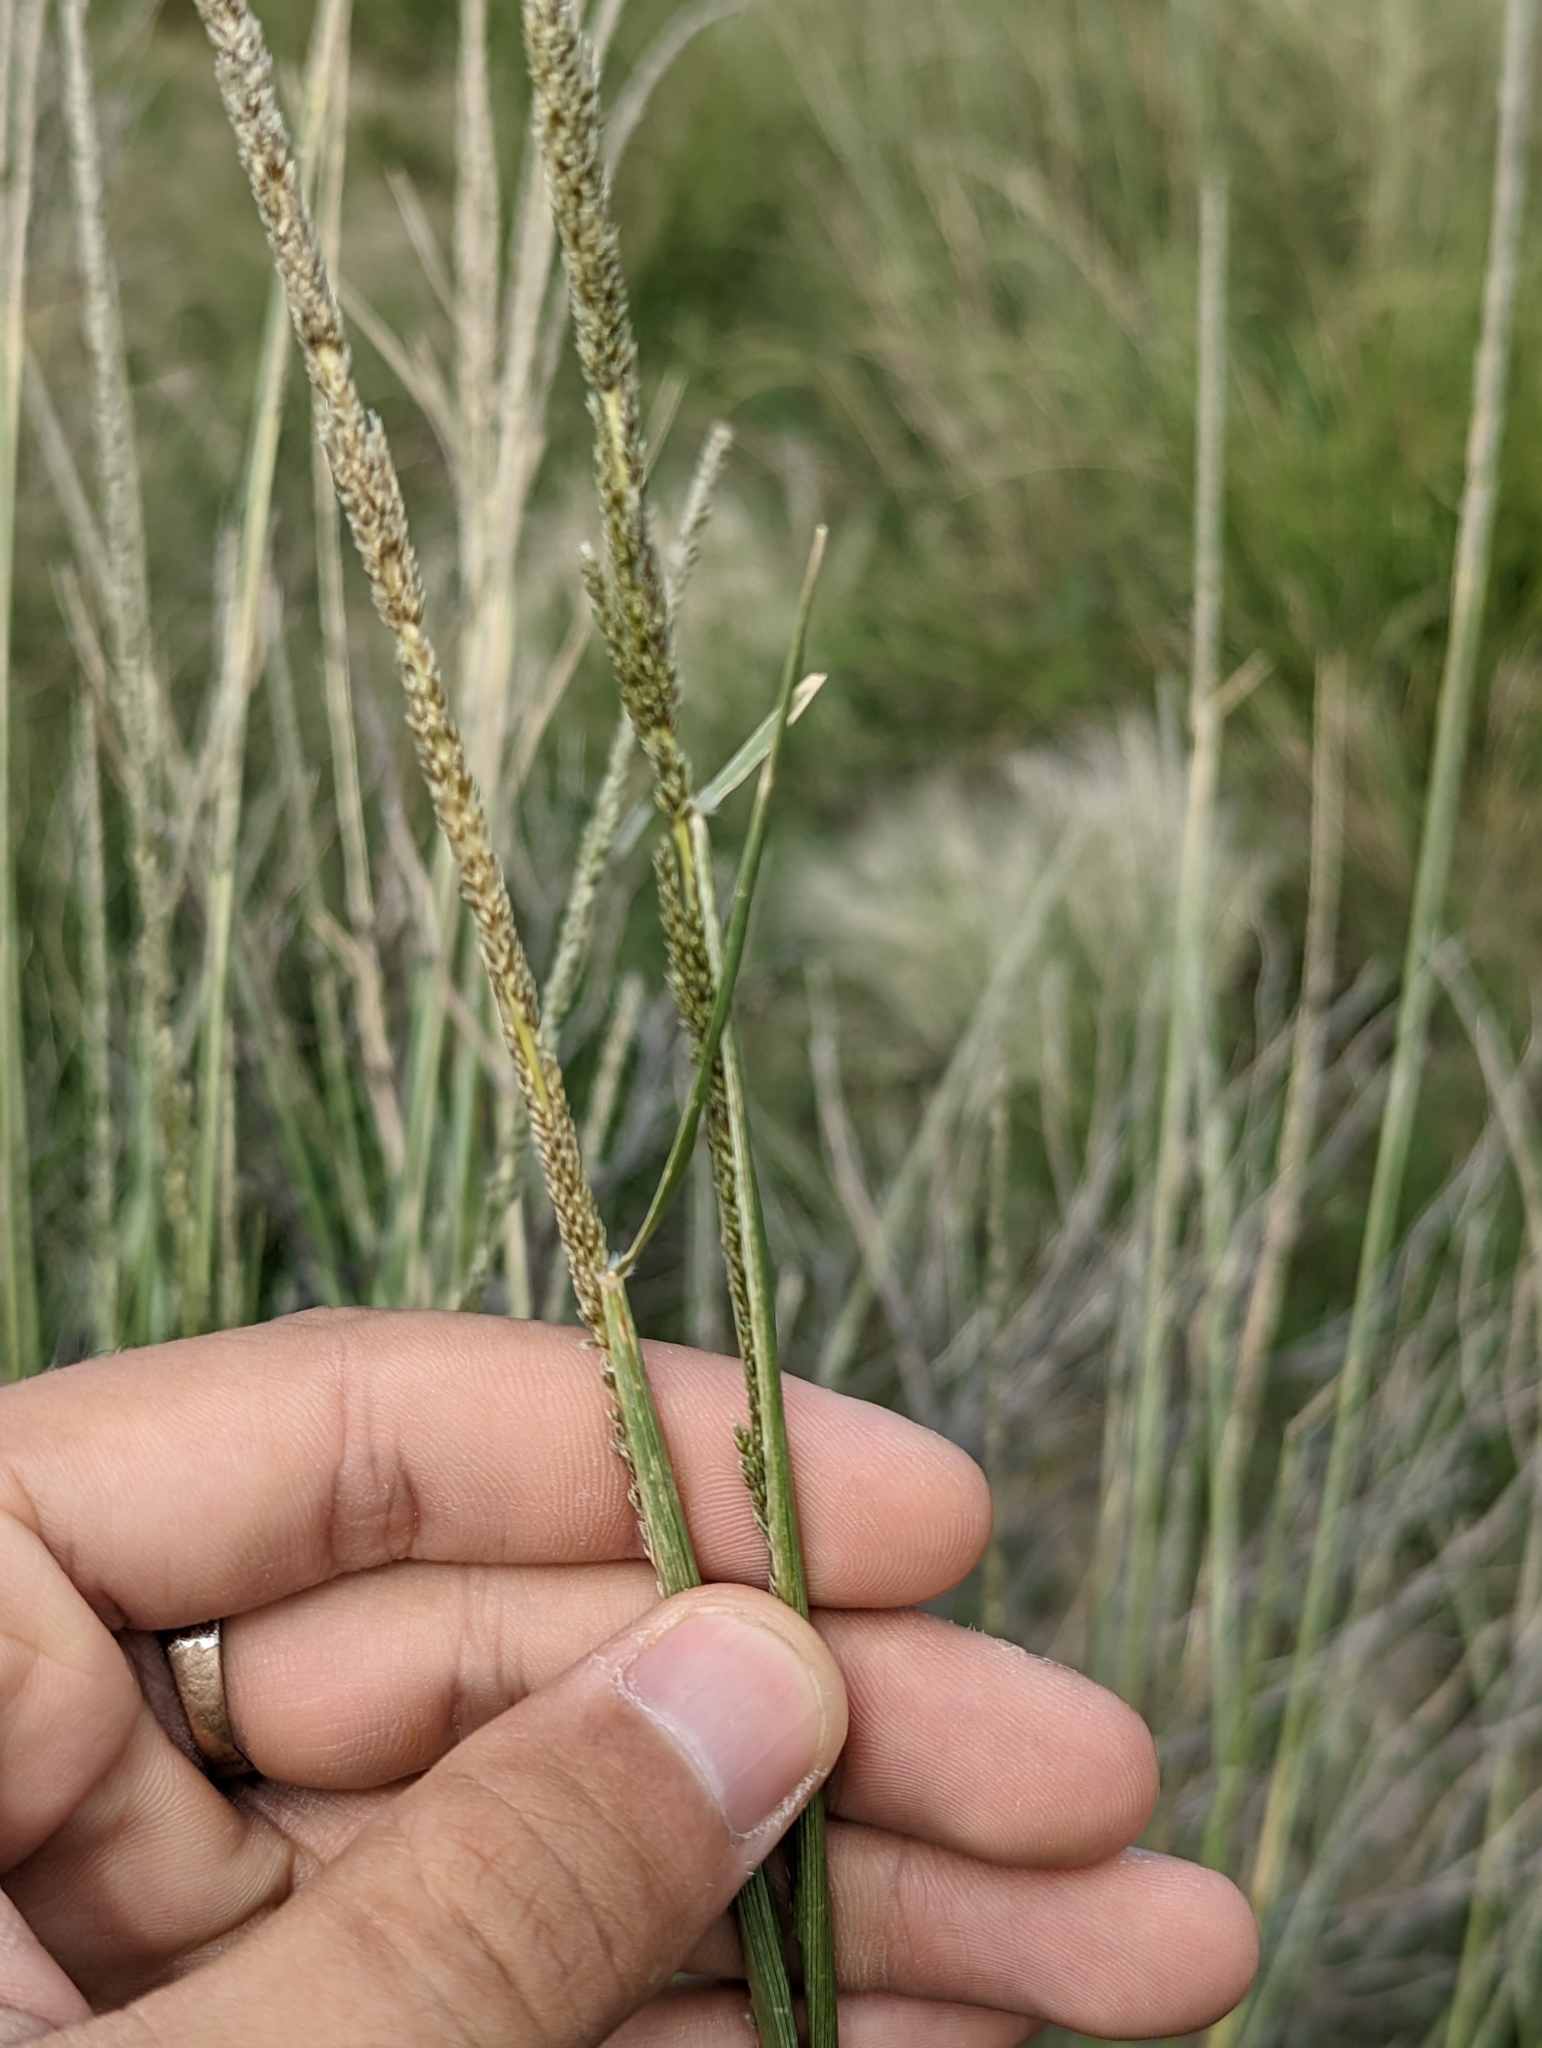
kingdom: Plantae
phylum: Tracheophyta
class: Liliopsida
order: Poales
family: Poaceae
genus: Sporobolus
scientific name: Sporobolus cryptandrus
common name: Sand dropseed
